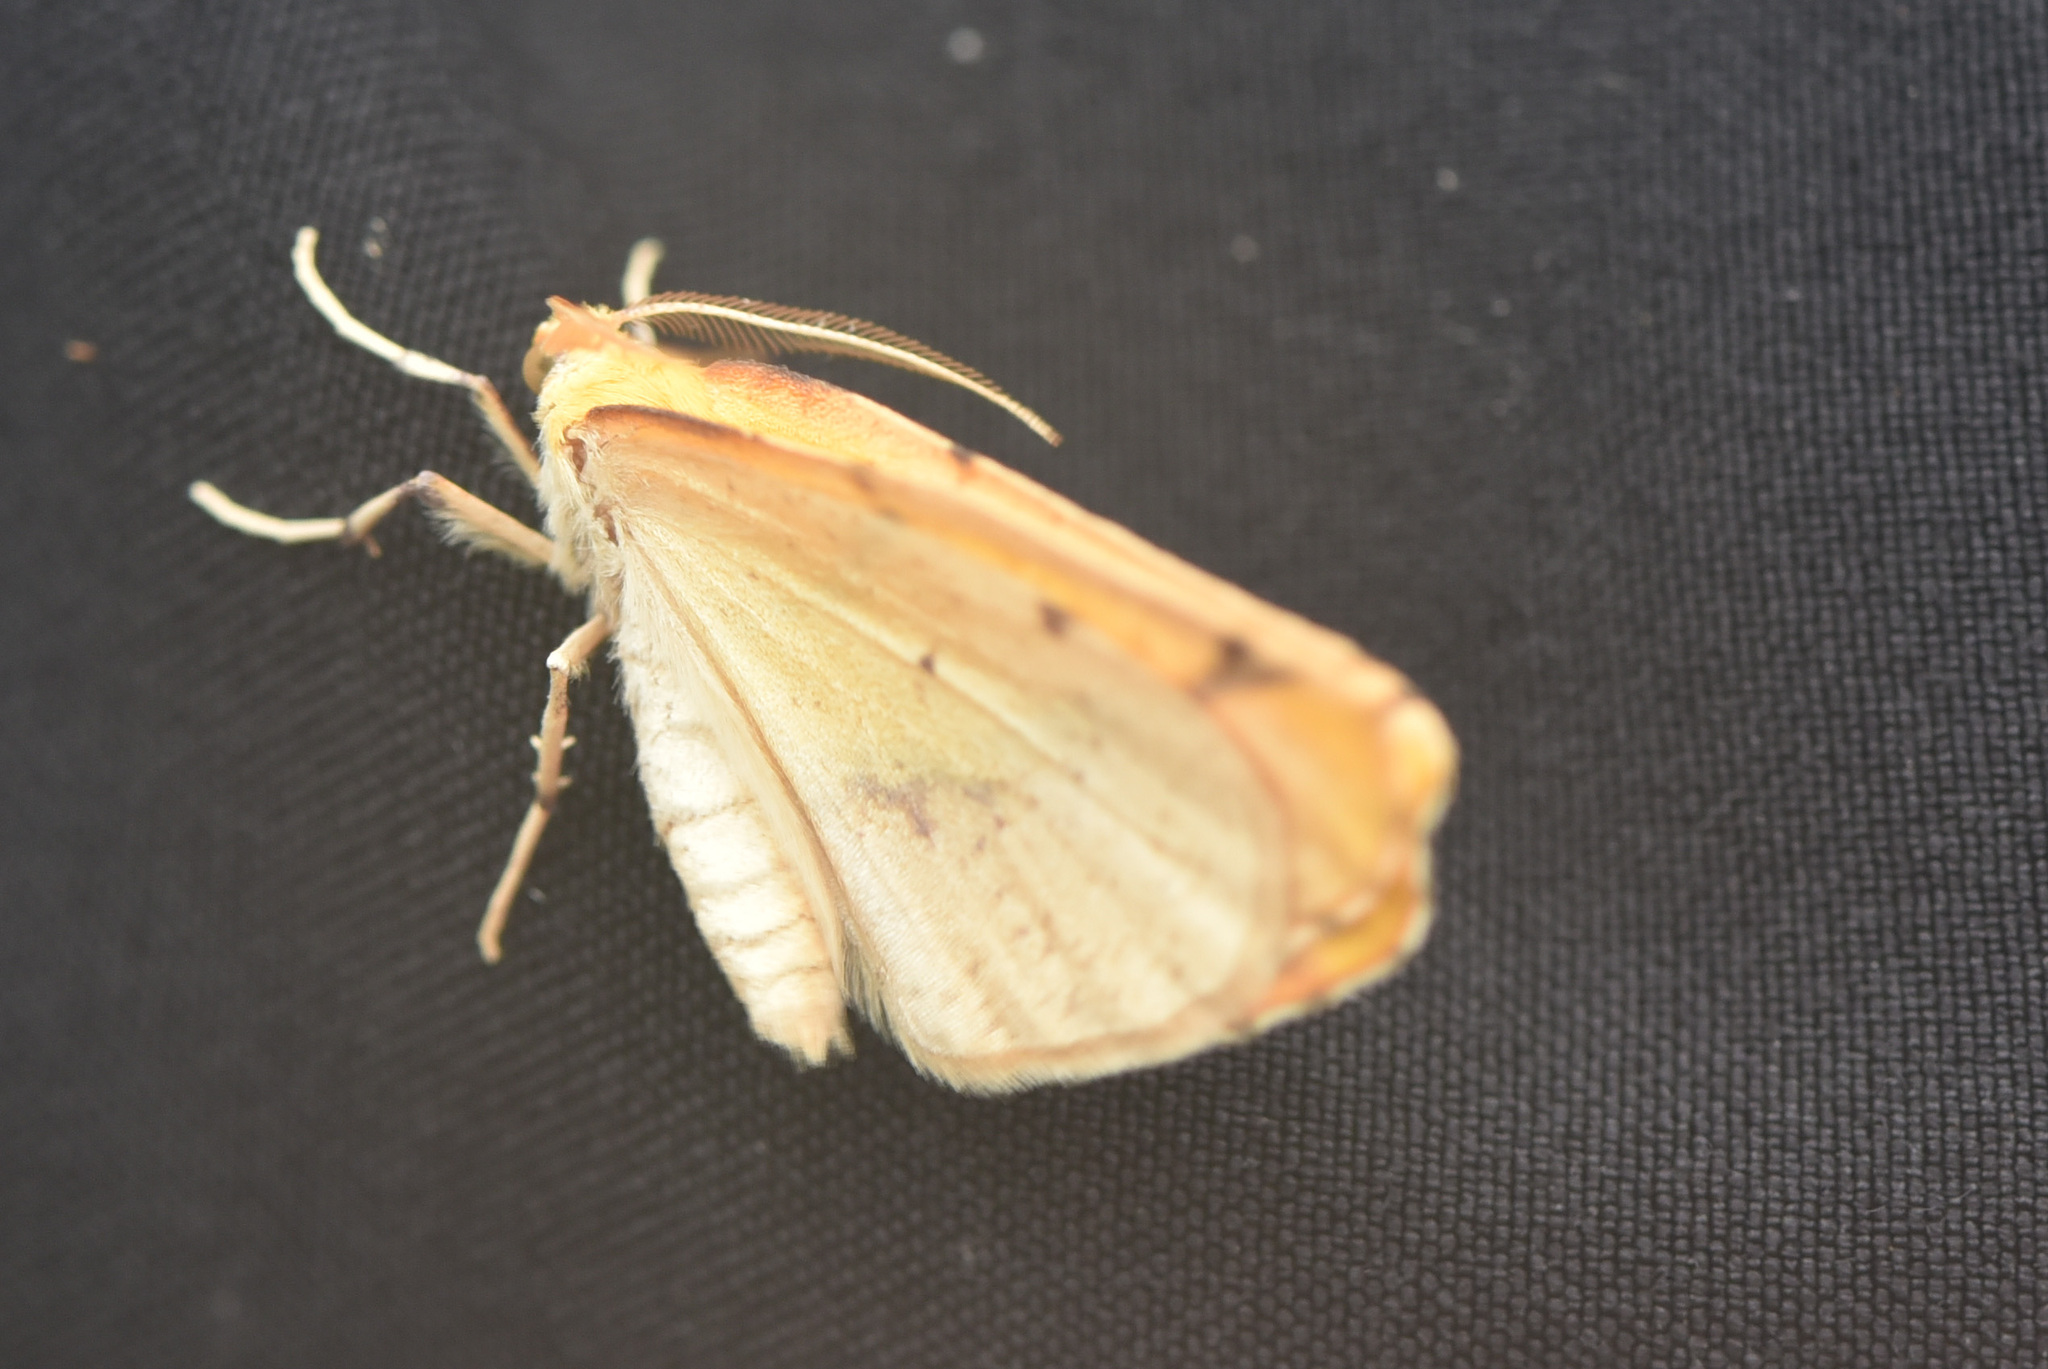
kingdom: Animalia
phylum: Arthropoda
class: Insecta
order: Lepidoptera
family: Geometridae
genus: Sicya
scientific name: Sicya macularia
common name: Sharp-lined yellow
